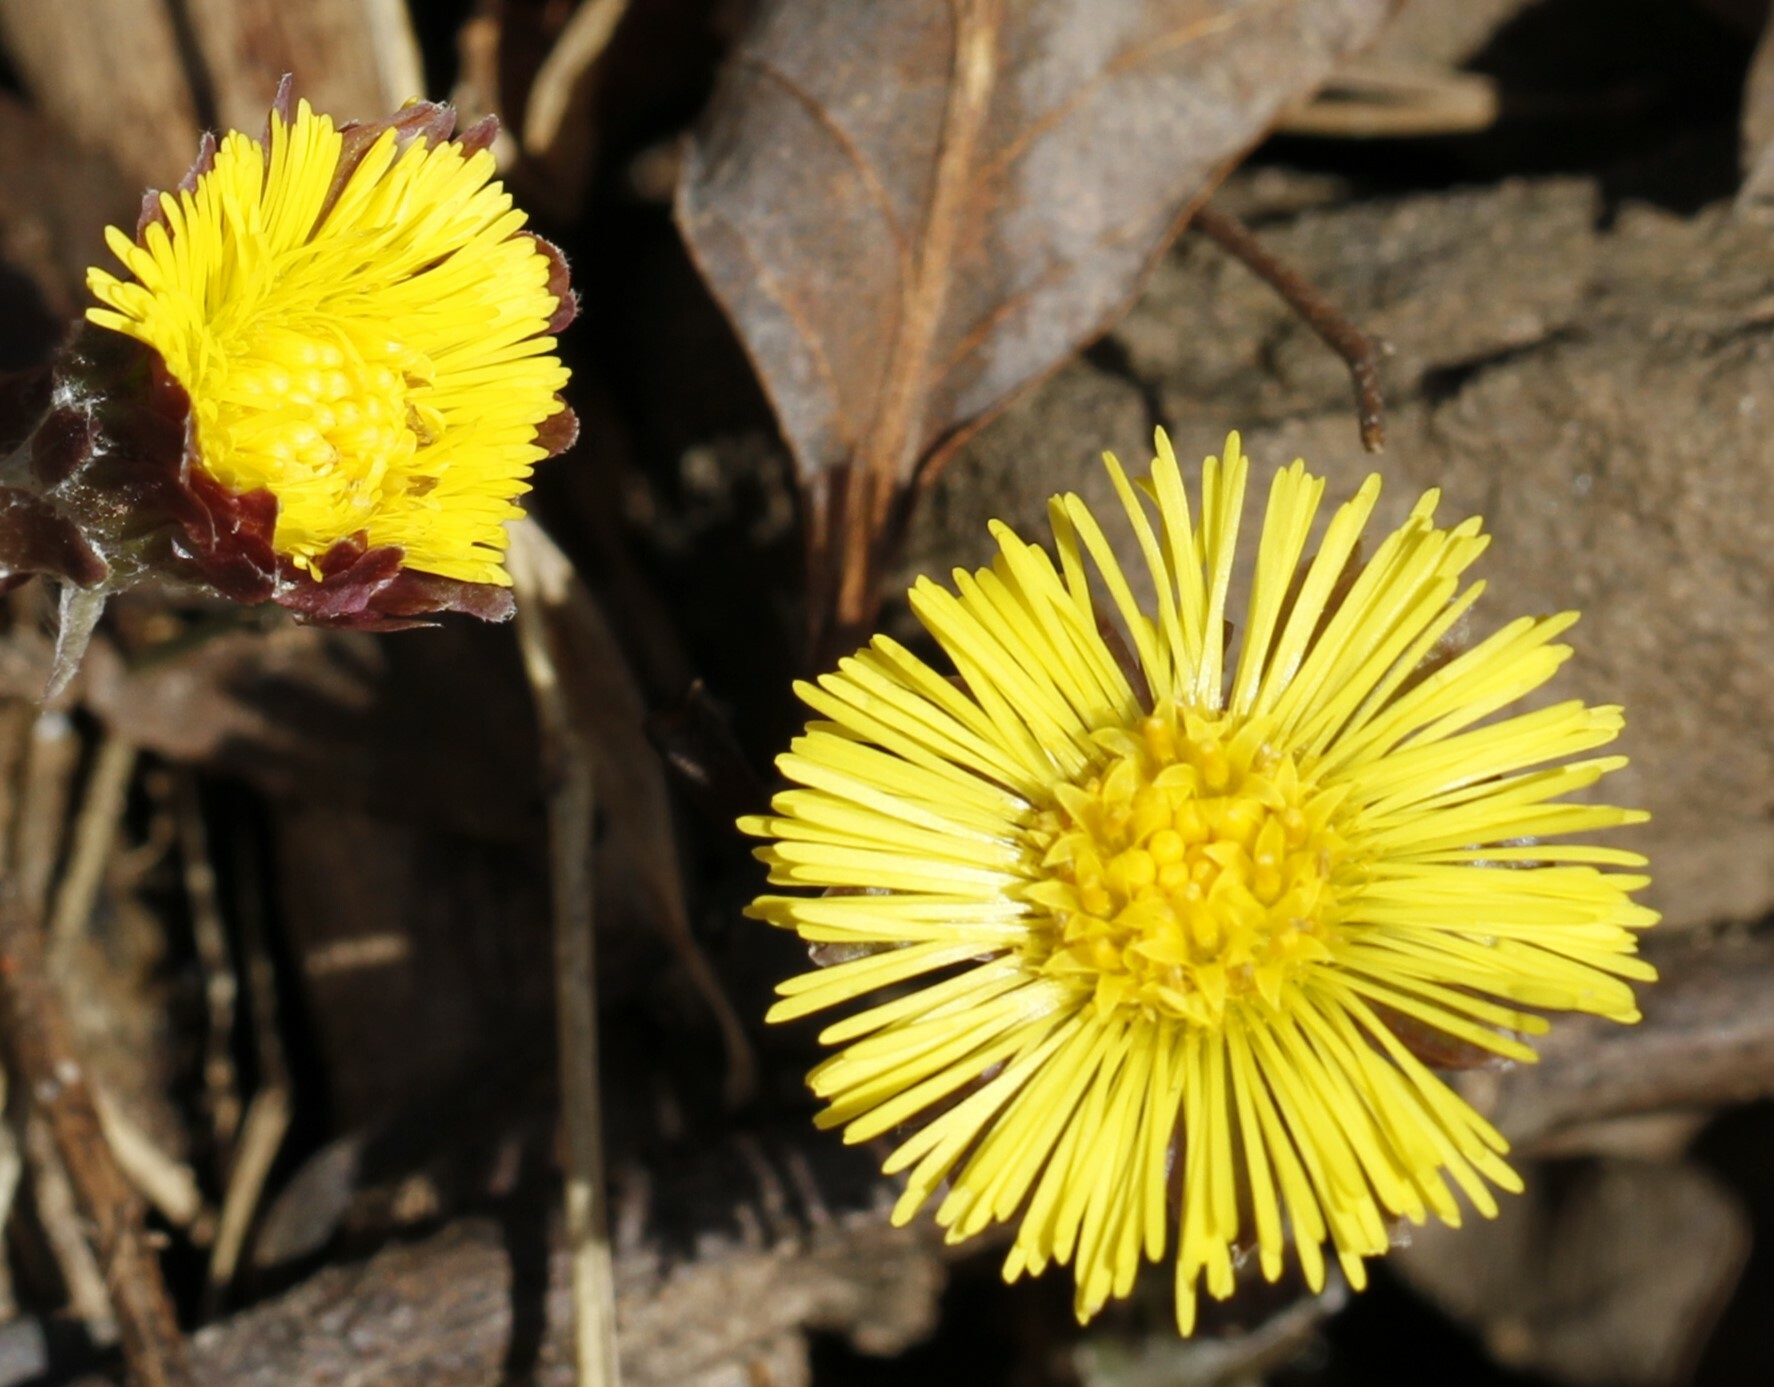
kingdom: Plantae
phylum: Tracheophyta
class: Magnoliopsida
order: Asterales
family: Asteraceae
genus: Tussilago
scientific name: Tussilago farfara
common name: Coltsfoot
